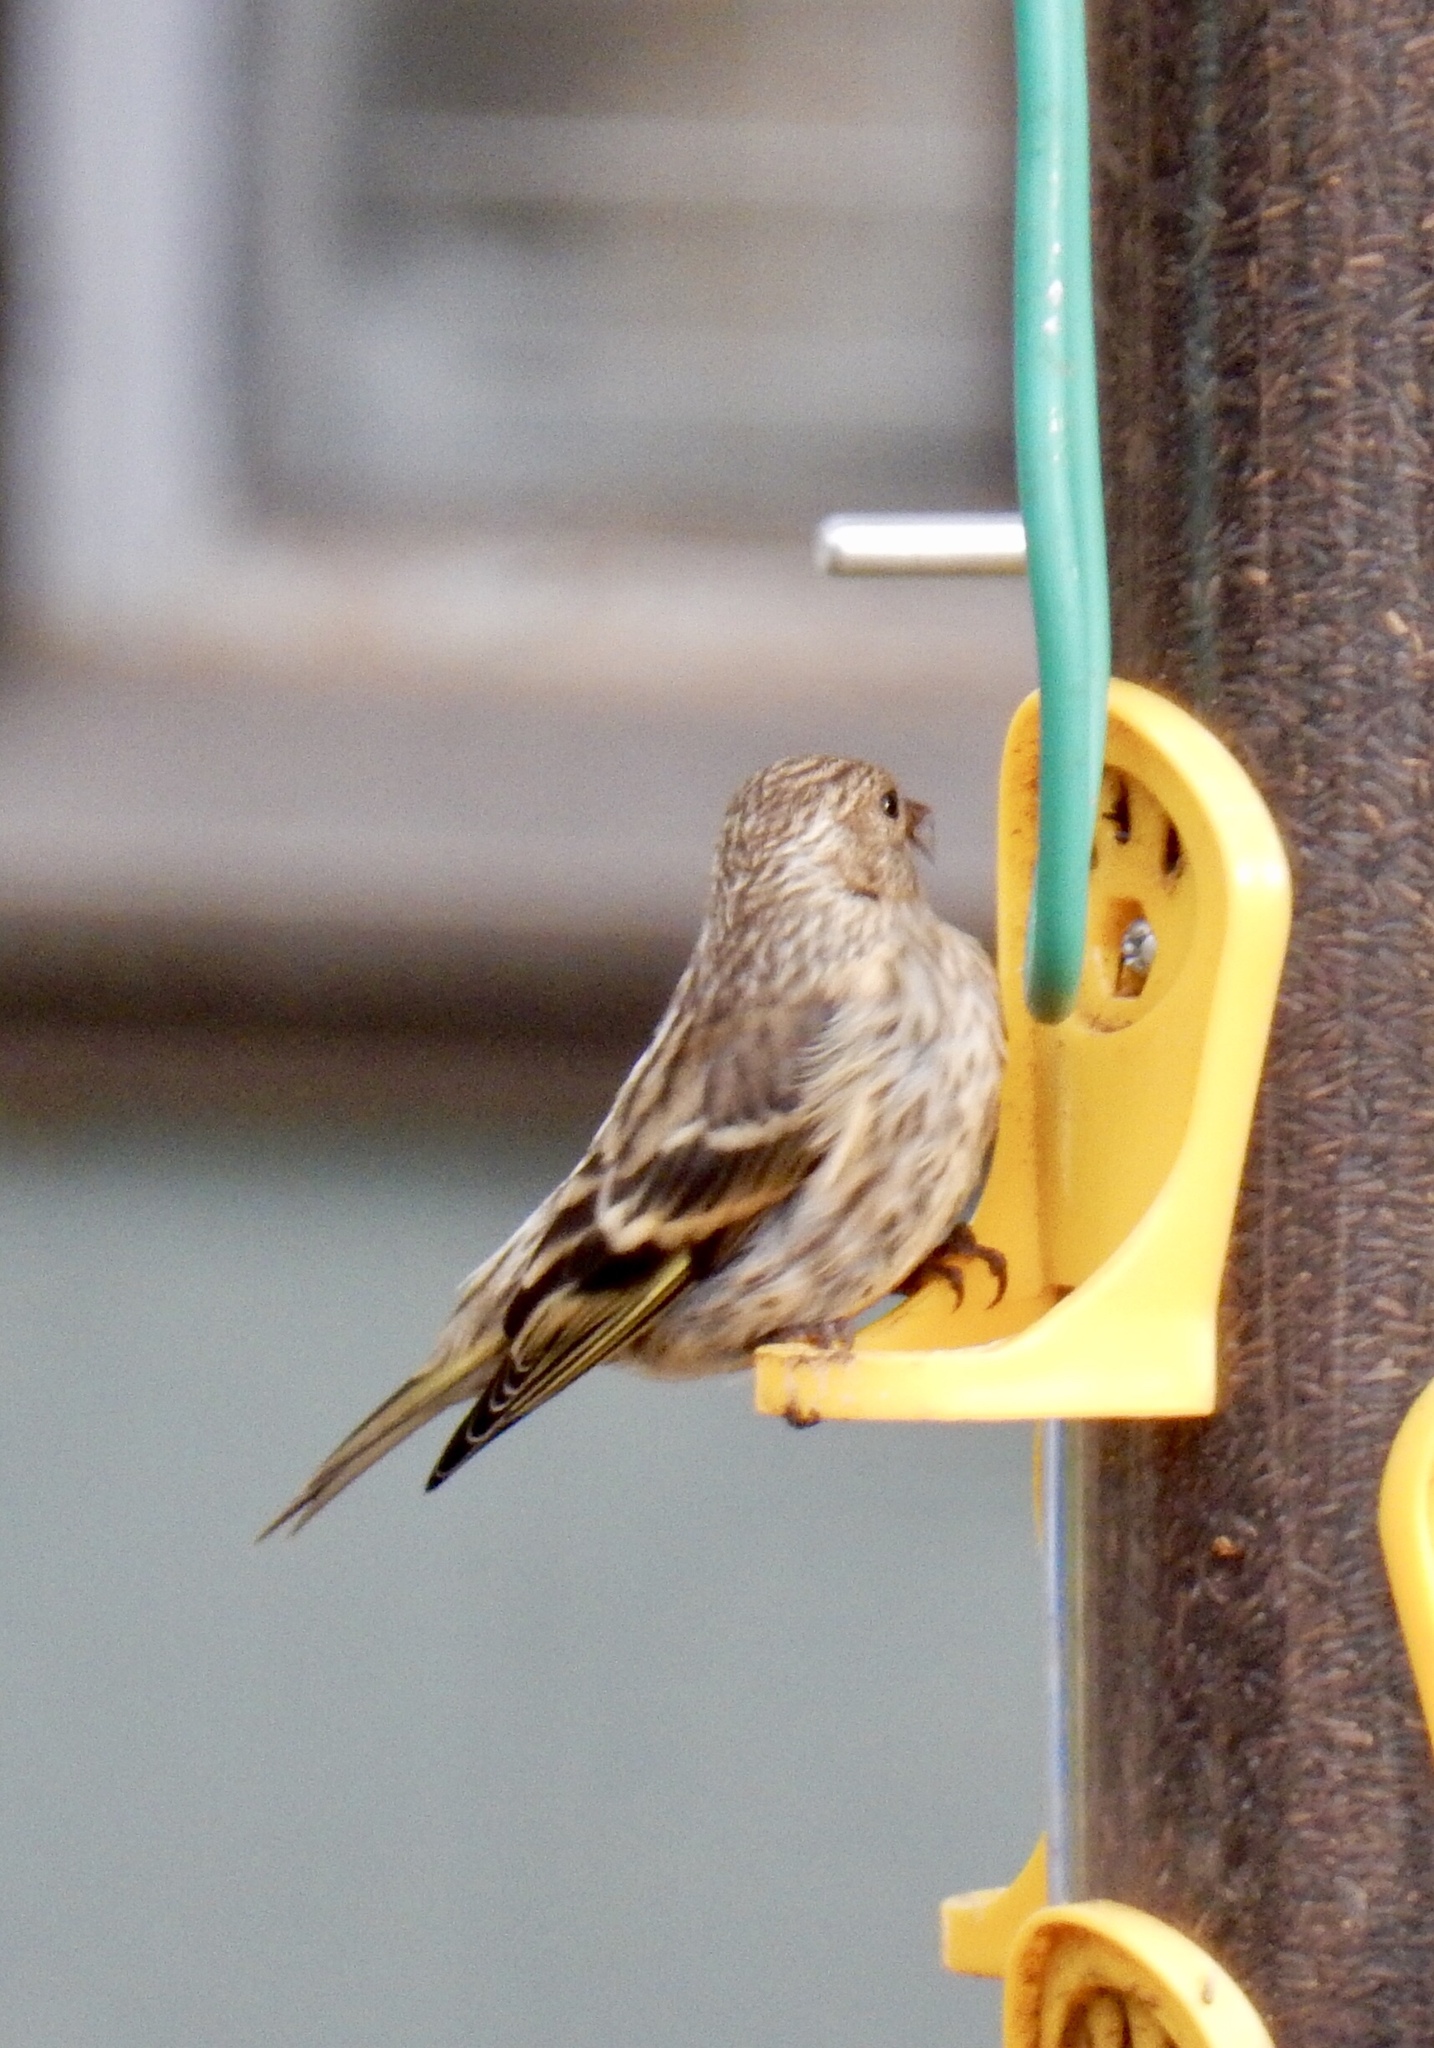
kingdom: Animalia
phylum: Chordata
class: Aves
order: Passeriformes
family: Fringillidae
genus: Spinus
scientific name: Spinus pinus
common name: Pine siskin
